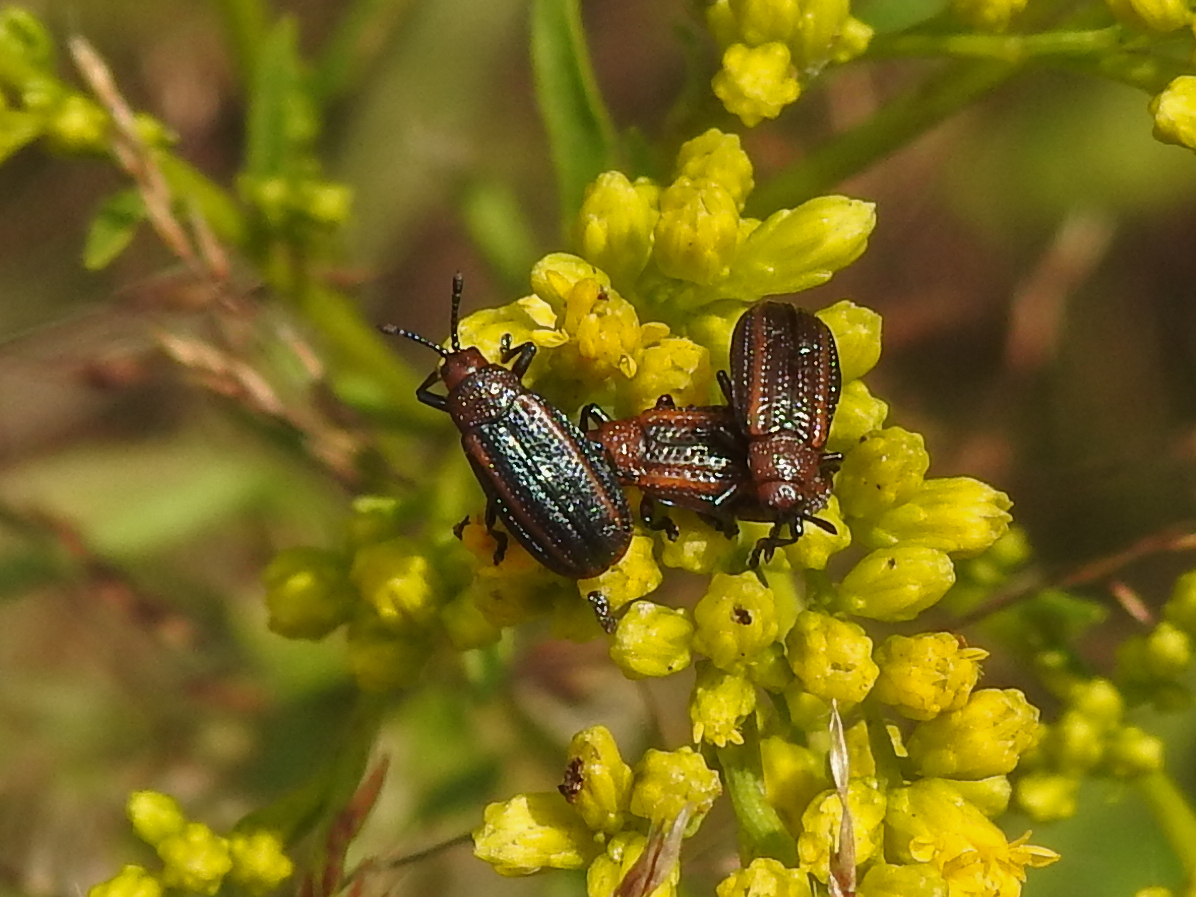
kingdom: Animalia
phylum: Arthropoda
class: Insecta
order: Coleoptera
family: Chrysomelidae
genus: Microrhopala
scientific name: Microrhopala vittata
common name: Goldenrod leaf miner beetle
